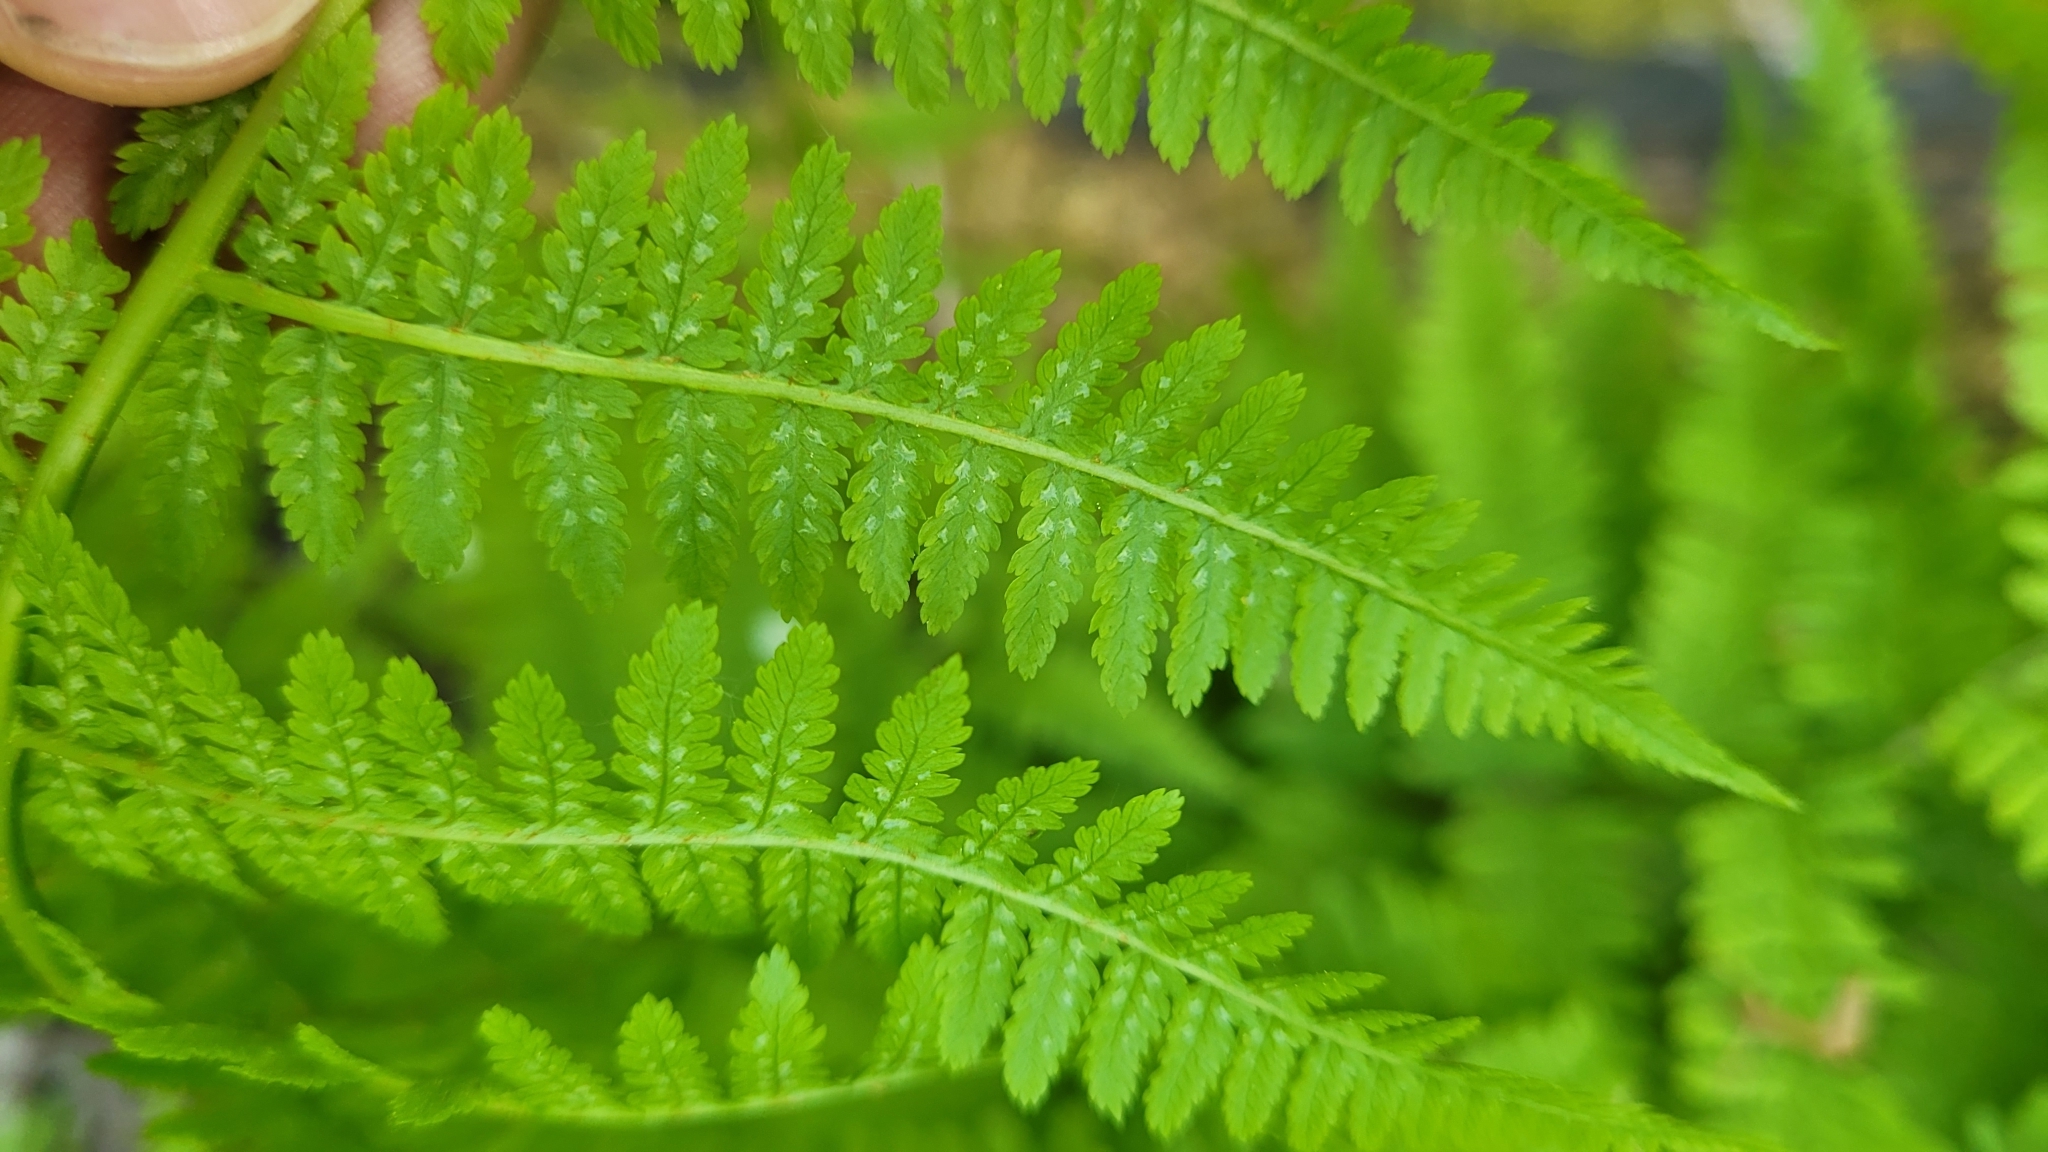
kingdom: Plantae
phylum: Tracheophyta
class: Polypodiopsida
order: Polypodiales
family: Athyriaceae
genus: Athyrium
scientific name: Athyrium filix-femina
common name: Lady fern
